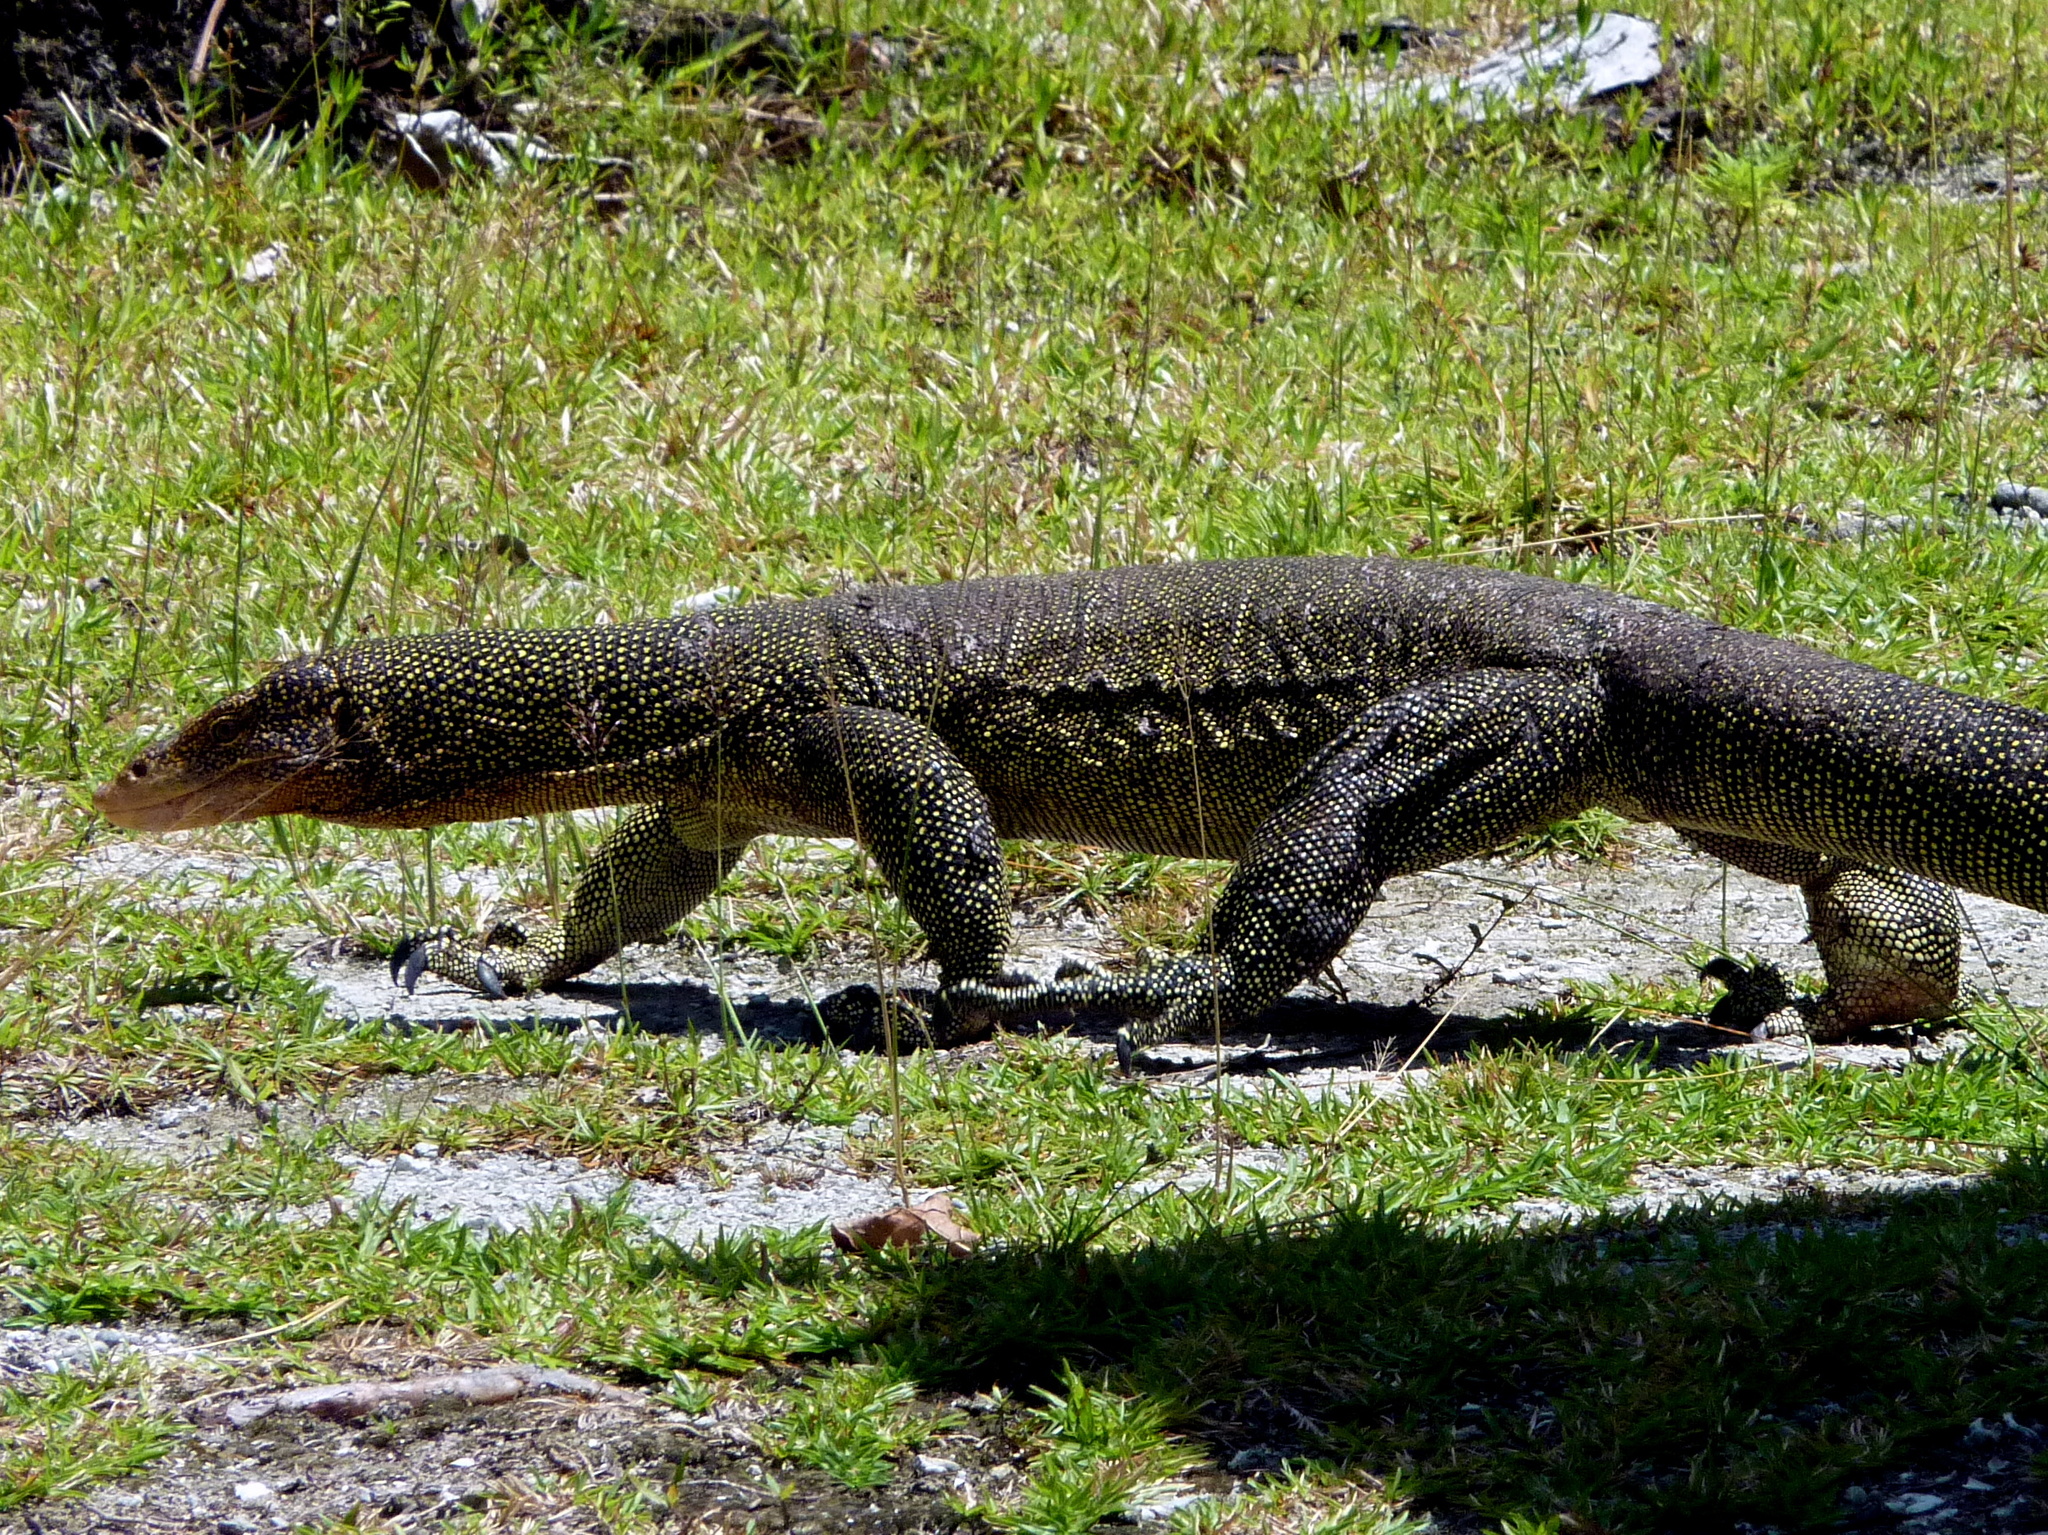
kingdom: Animalia
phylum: Chordata
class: Squamata
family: Varanidae
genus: Varanus
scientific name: Varanus indicus
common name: Mangrove monitor
